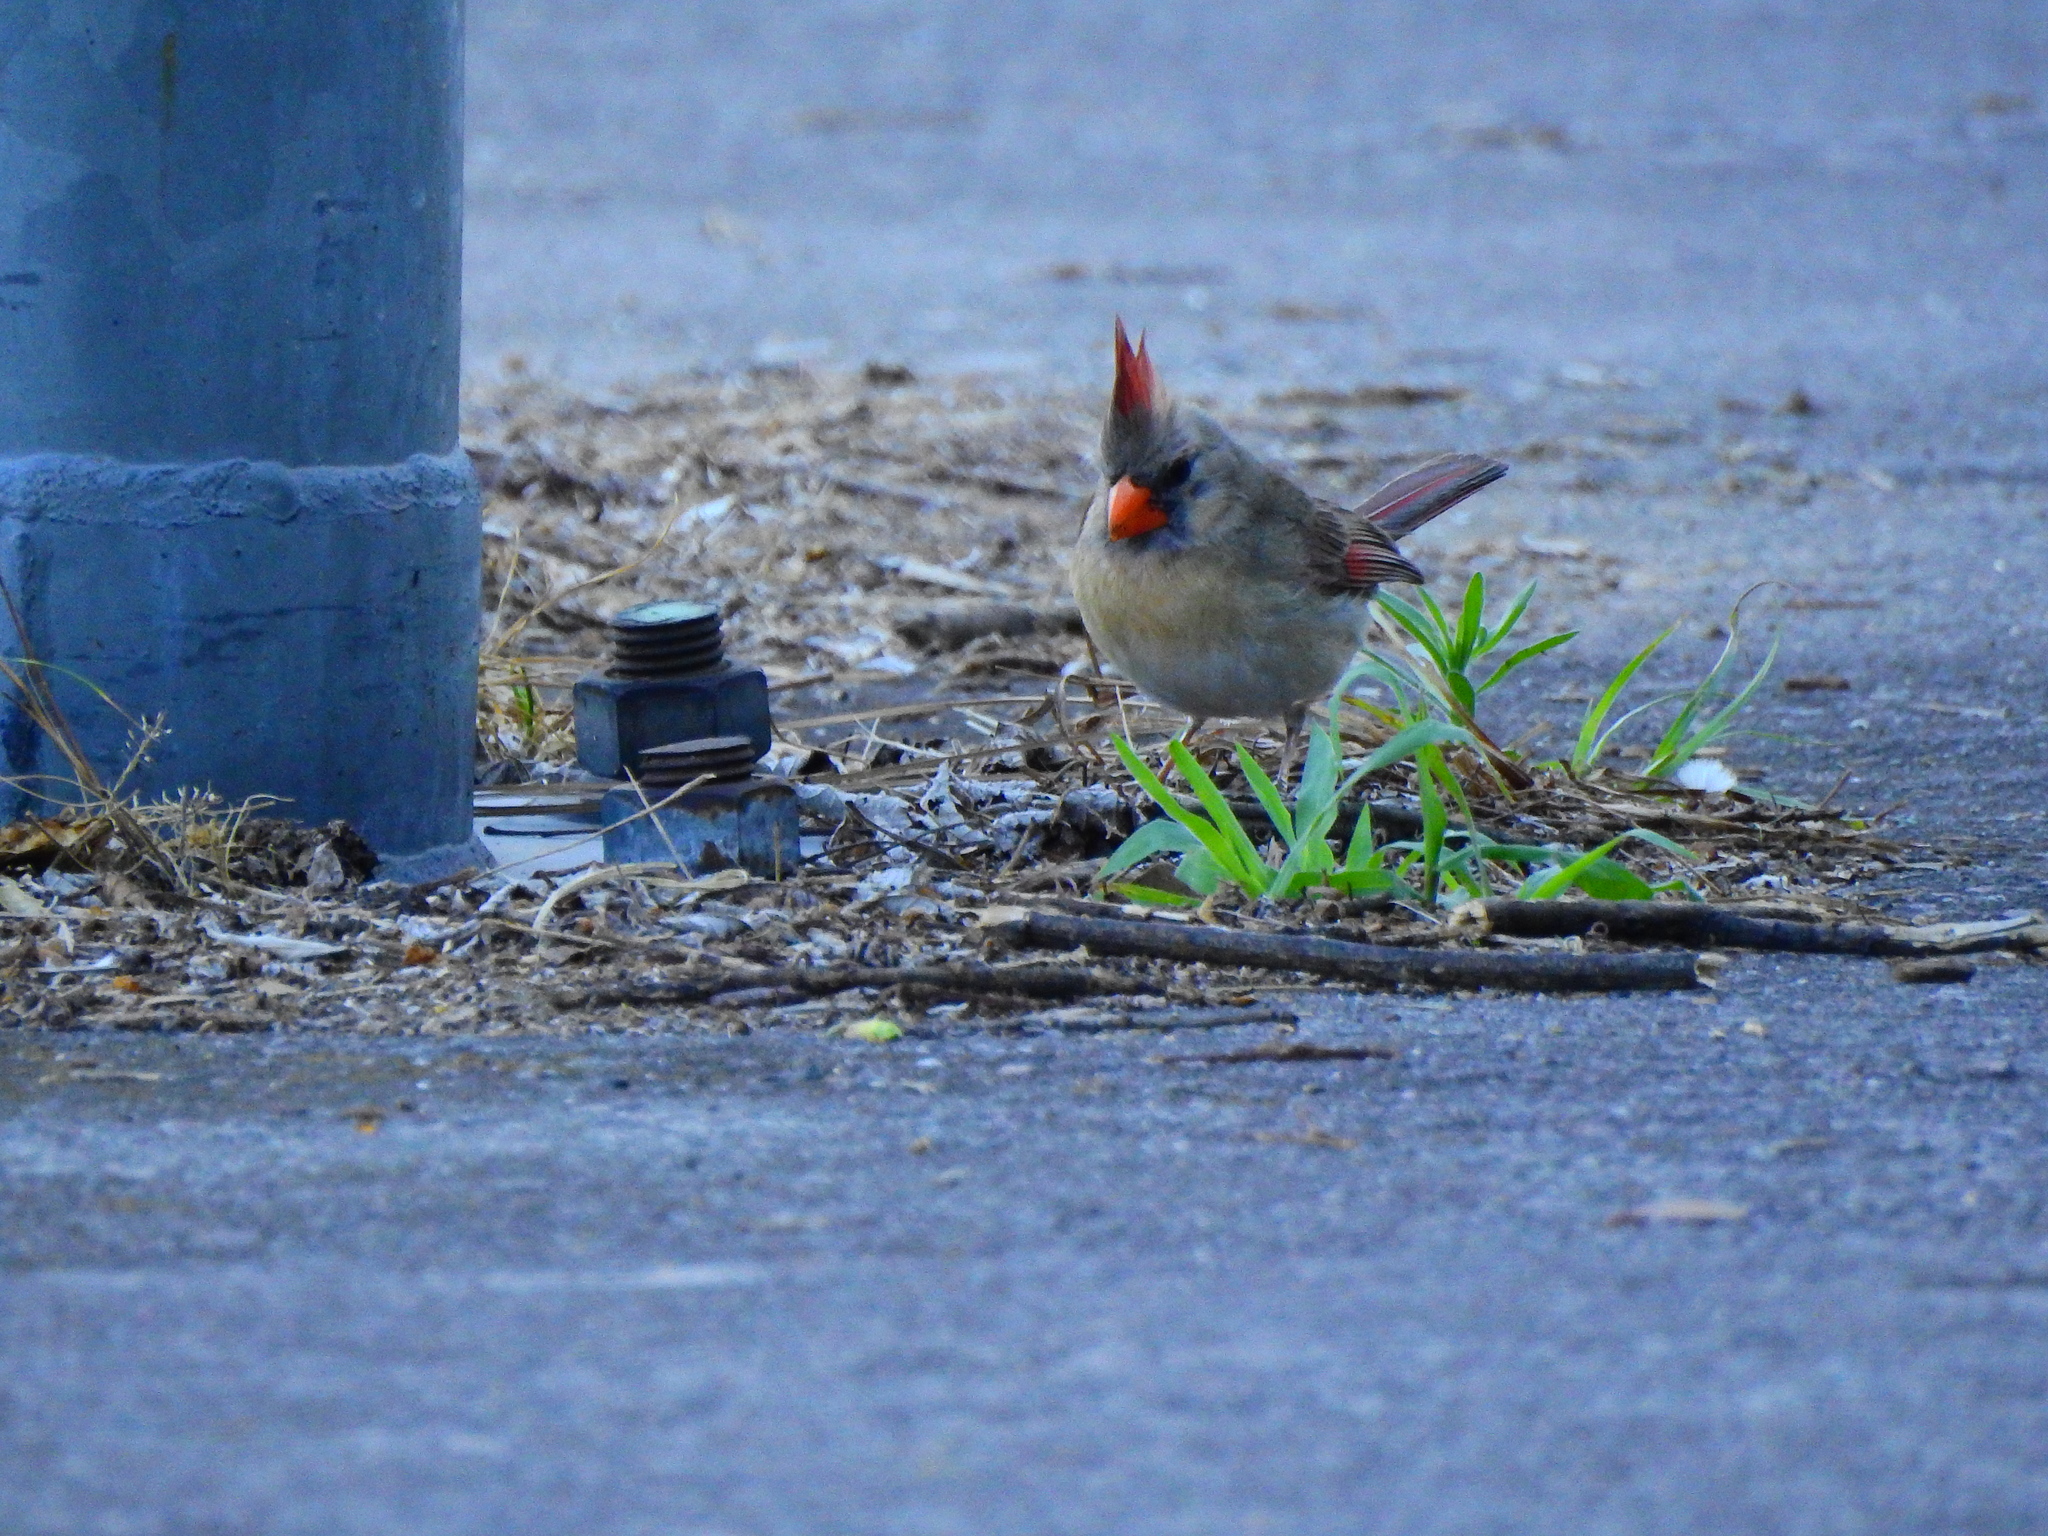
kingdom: Animalia
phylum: Chordata
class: Aves
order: Passeriformes
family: Cardinalidae
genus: Cardinalis
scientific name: Cardinalis cardinalis
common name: Northern cardinal
